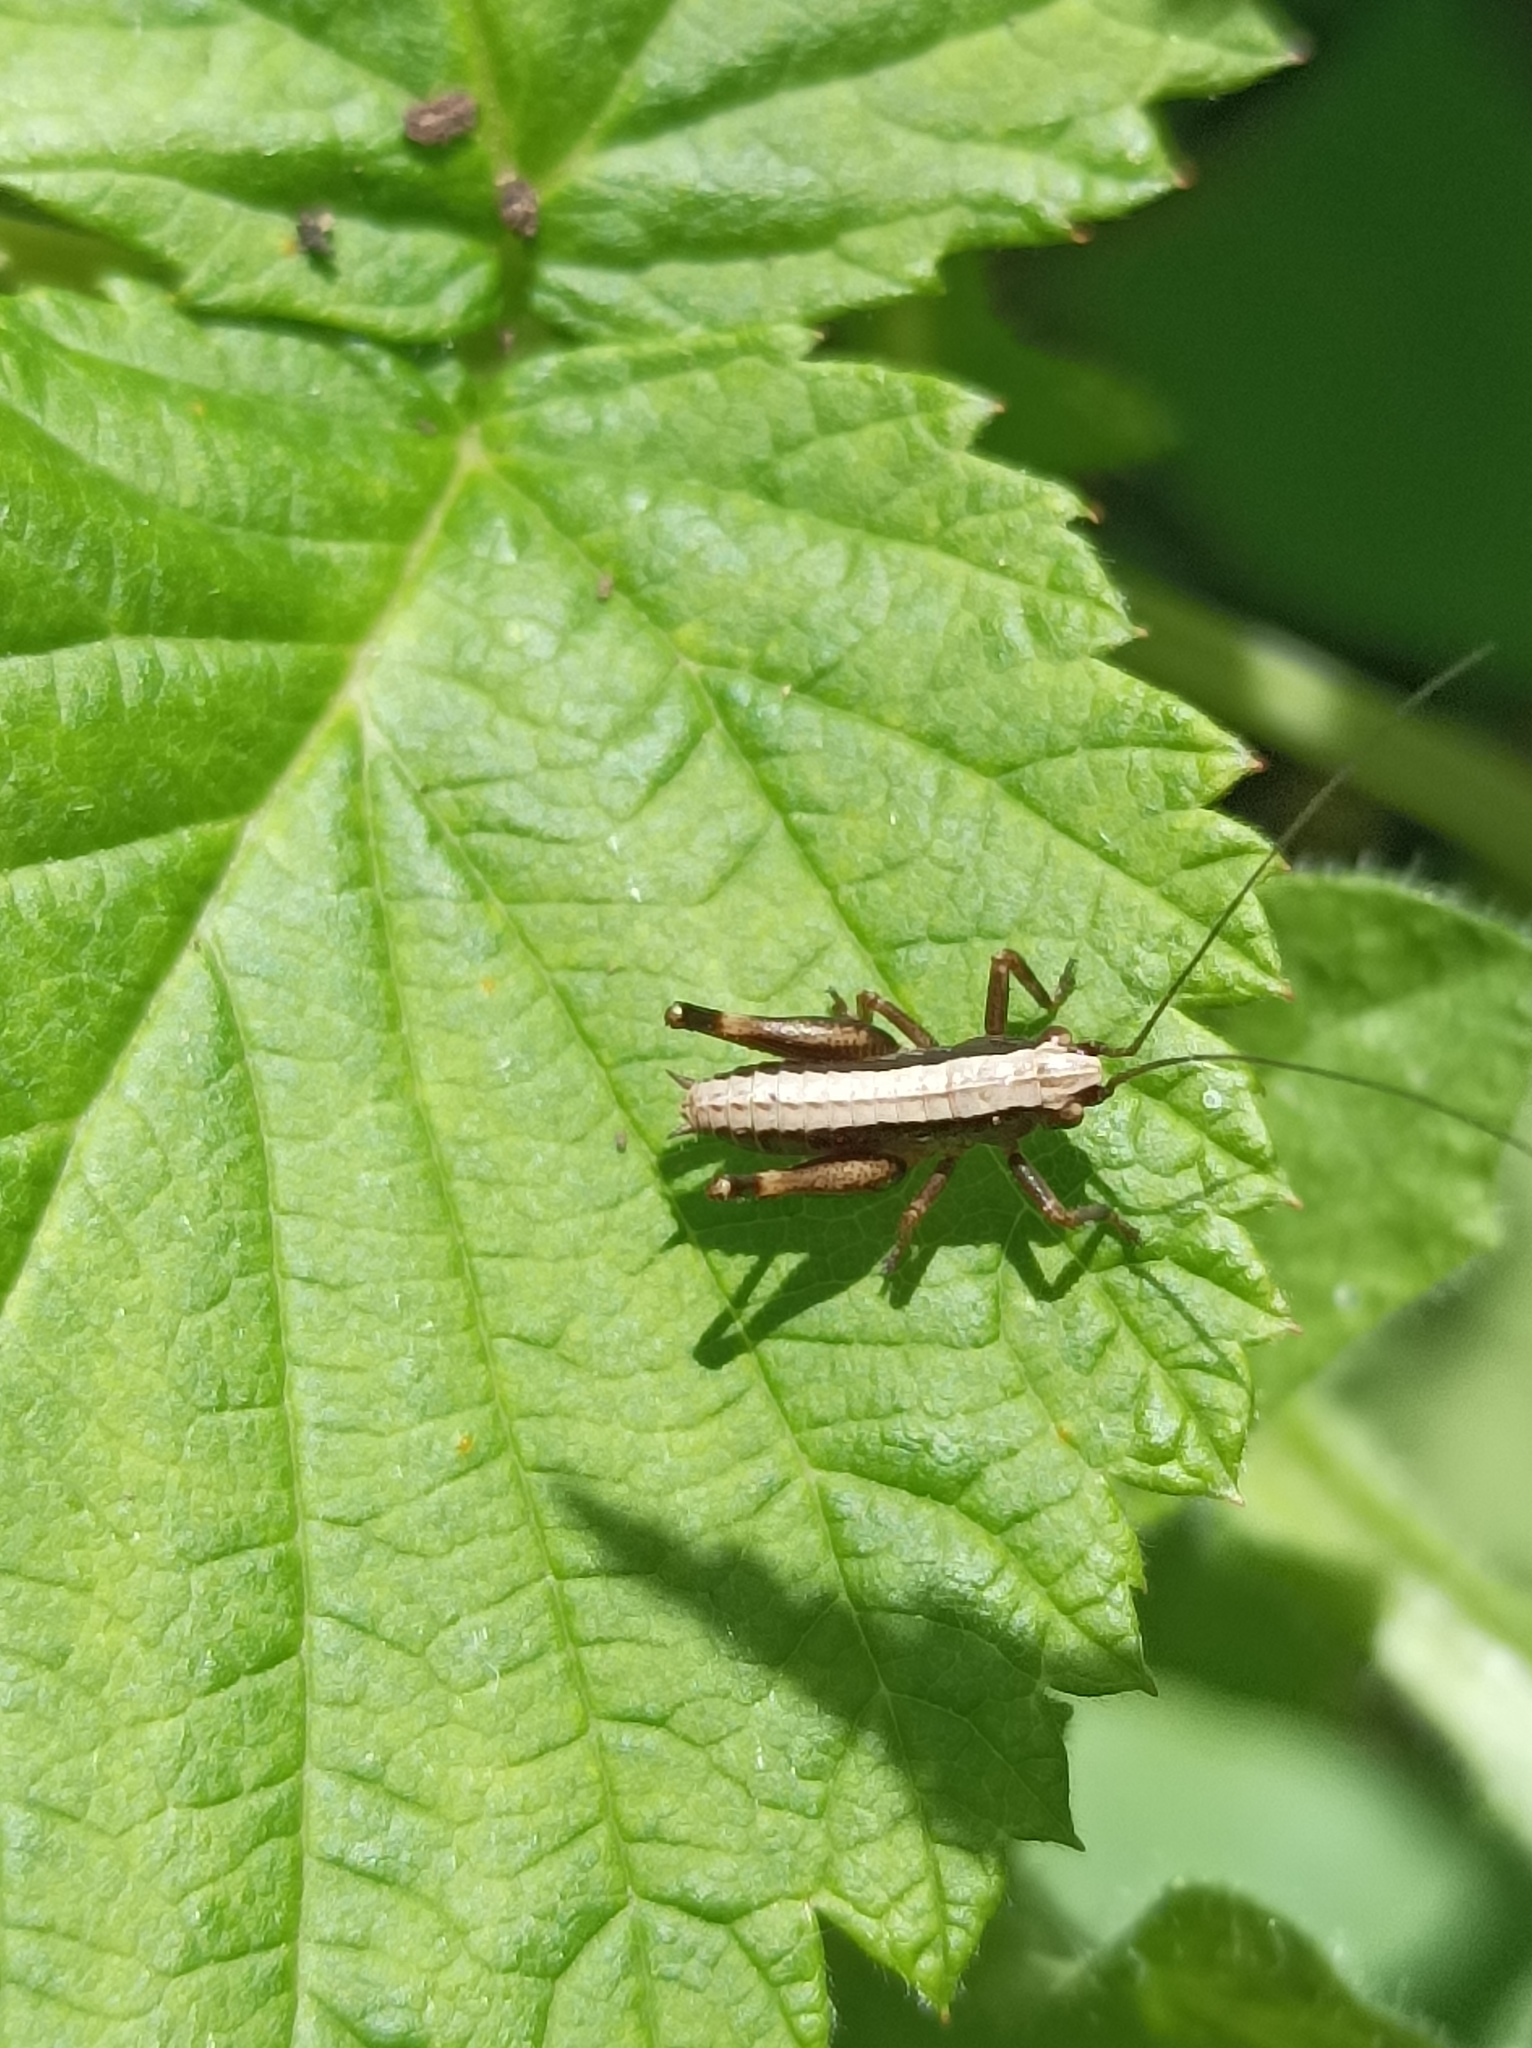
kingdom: Animalia
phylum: Arthropoda
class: Insecta
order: Orthoptera
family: Tettigoniidae
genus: Pholidoptera
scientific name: Pholidoptera griseoaptera
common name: Dark bush-cricket
